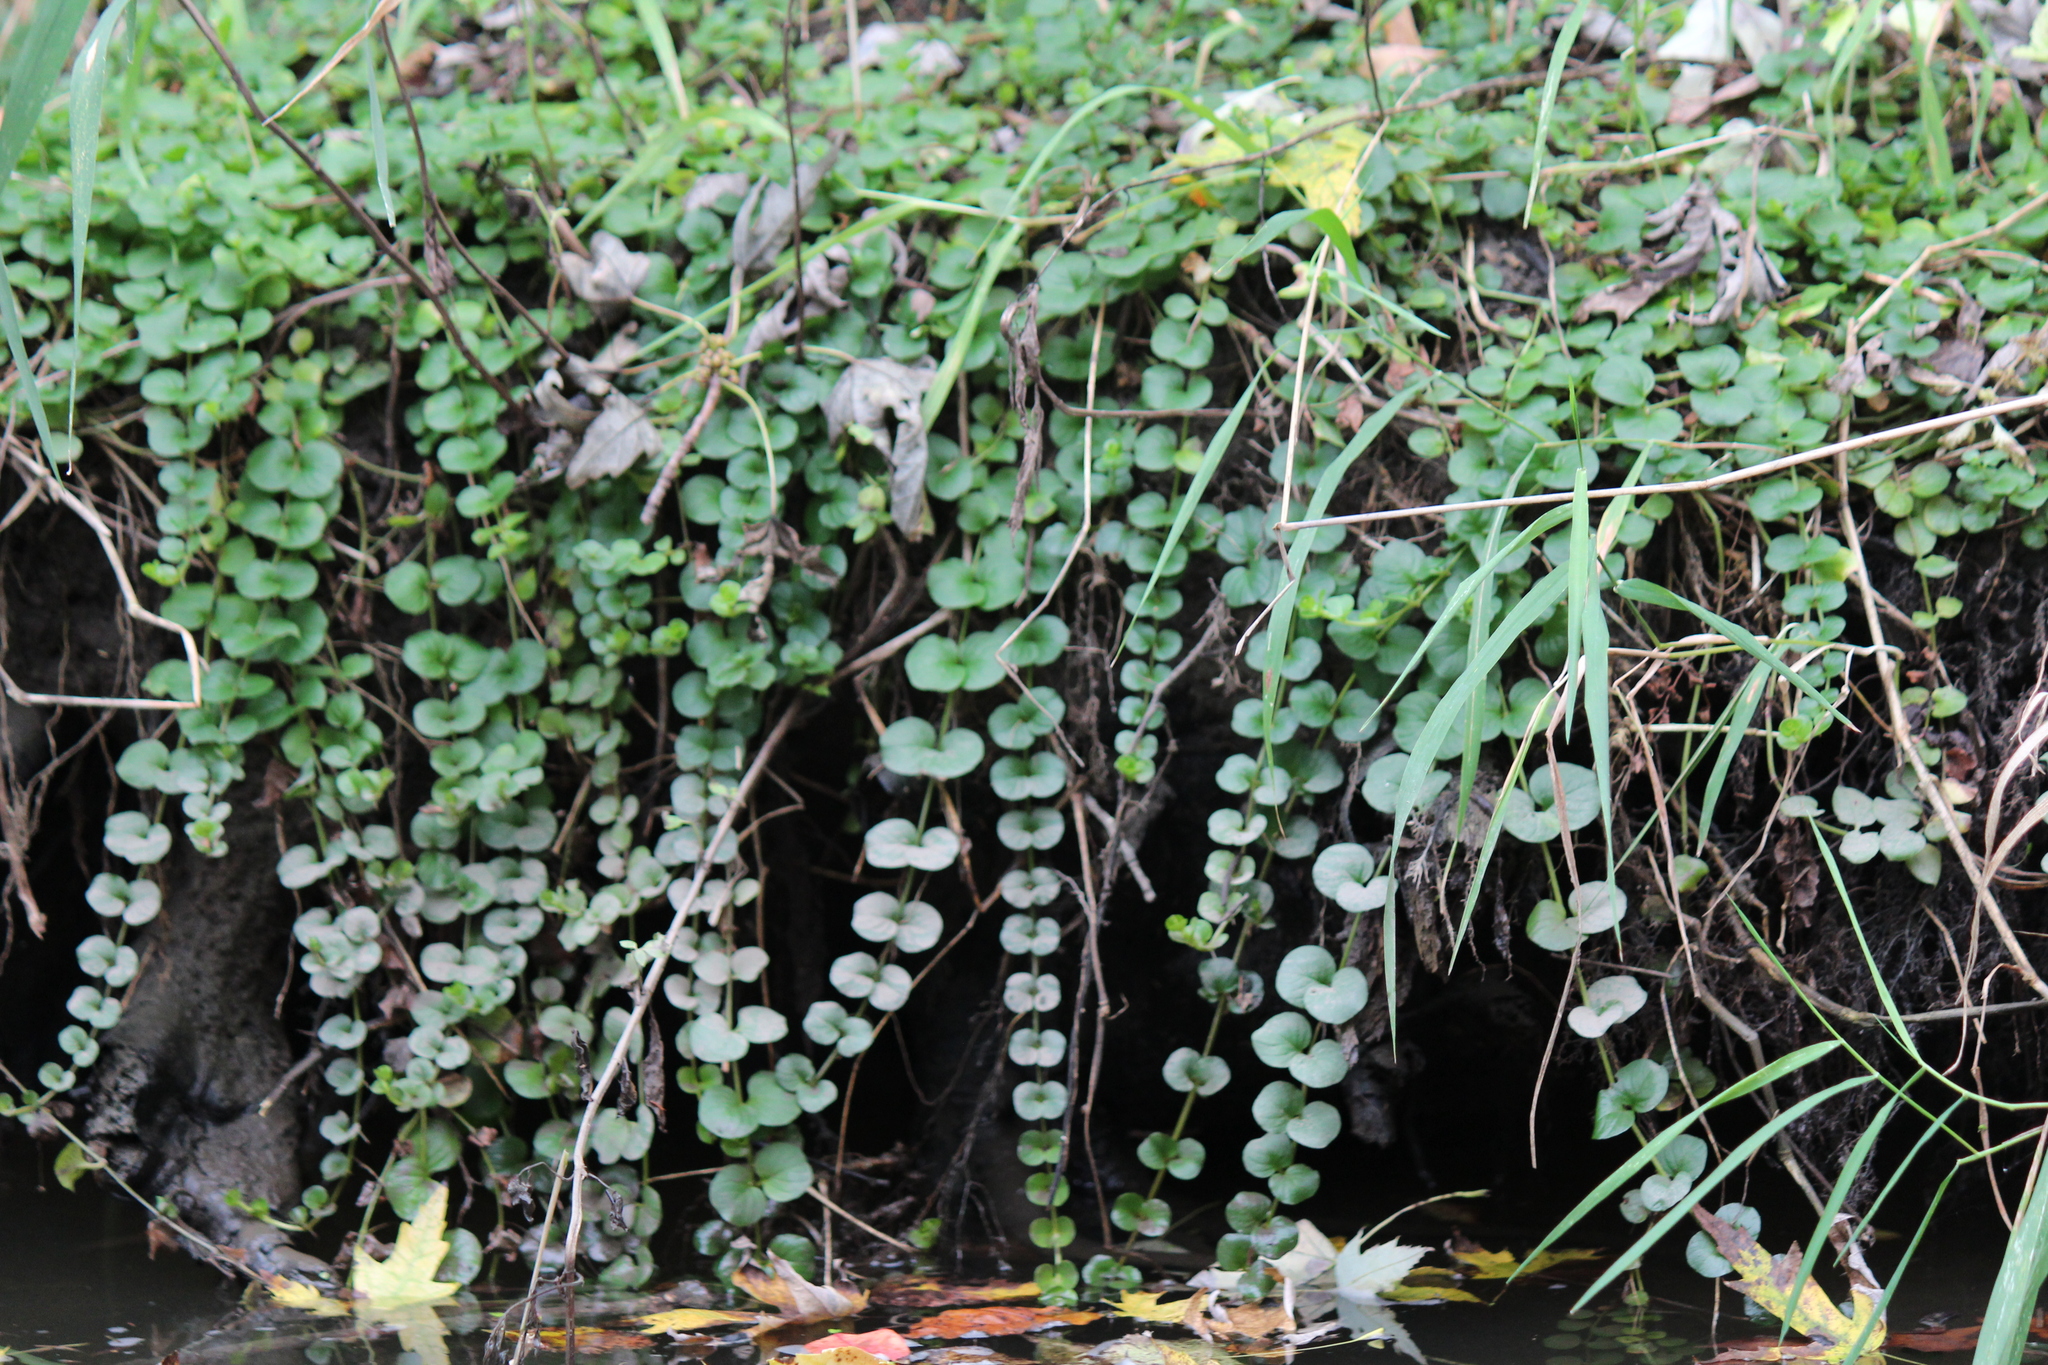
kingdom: Plantae
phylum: Tracheophyta
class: Magnoliopsida
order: Ericales
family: Primulaceae
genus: Lysimachia
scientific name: Lysimachia nummularia
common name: Moneywort
